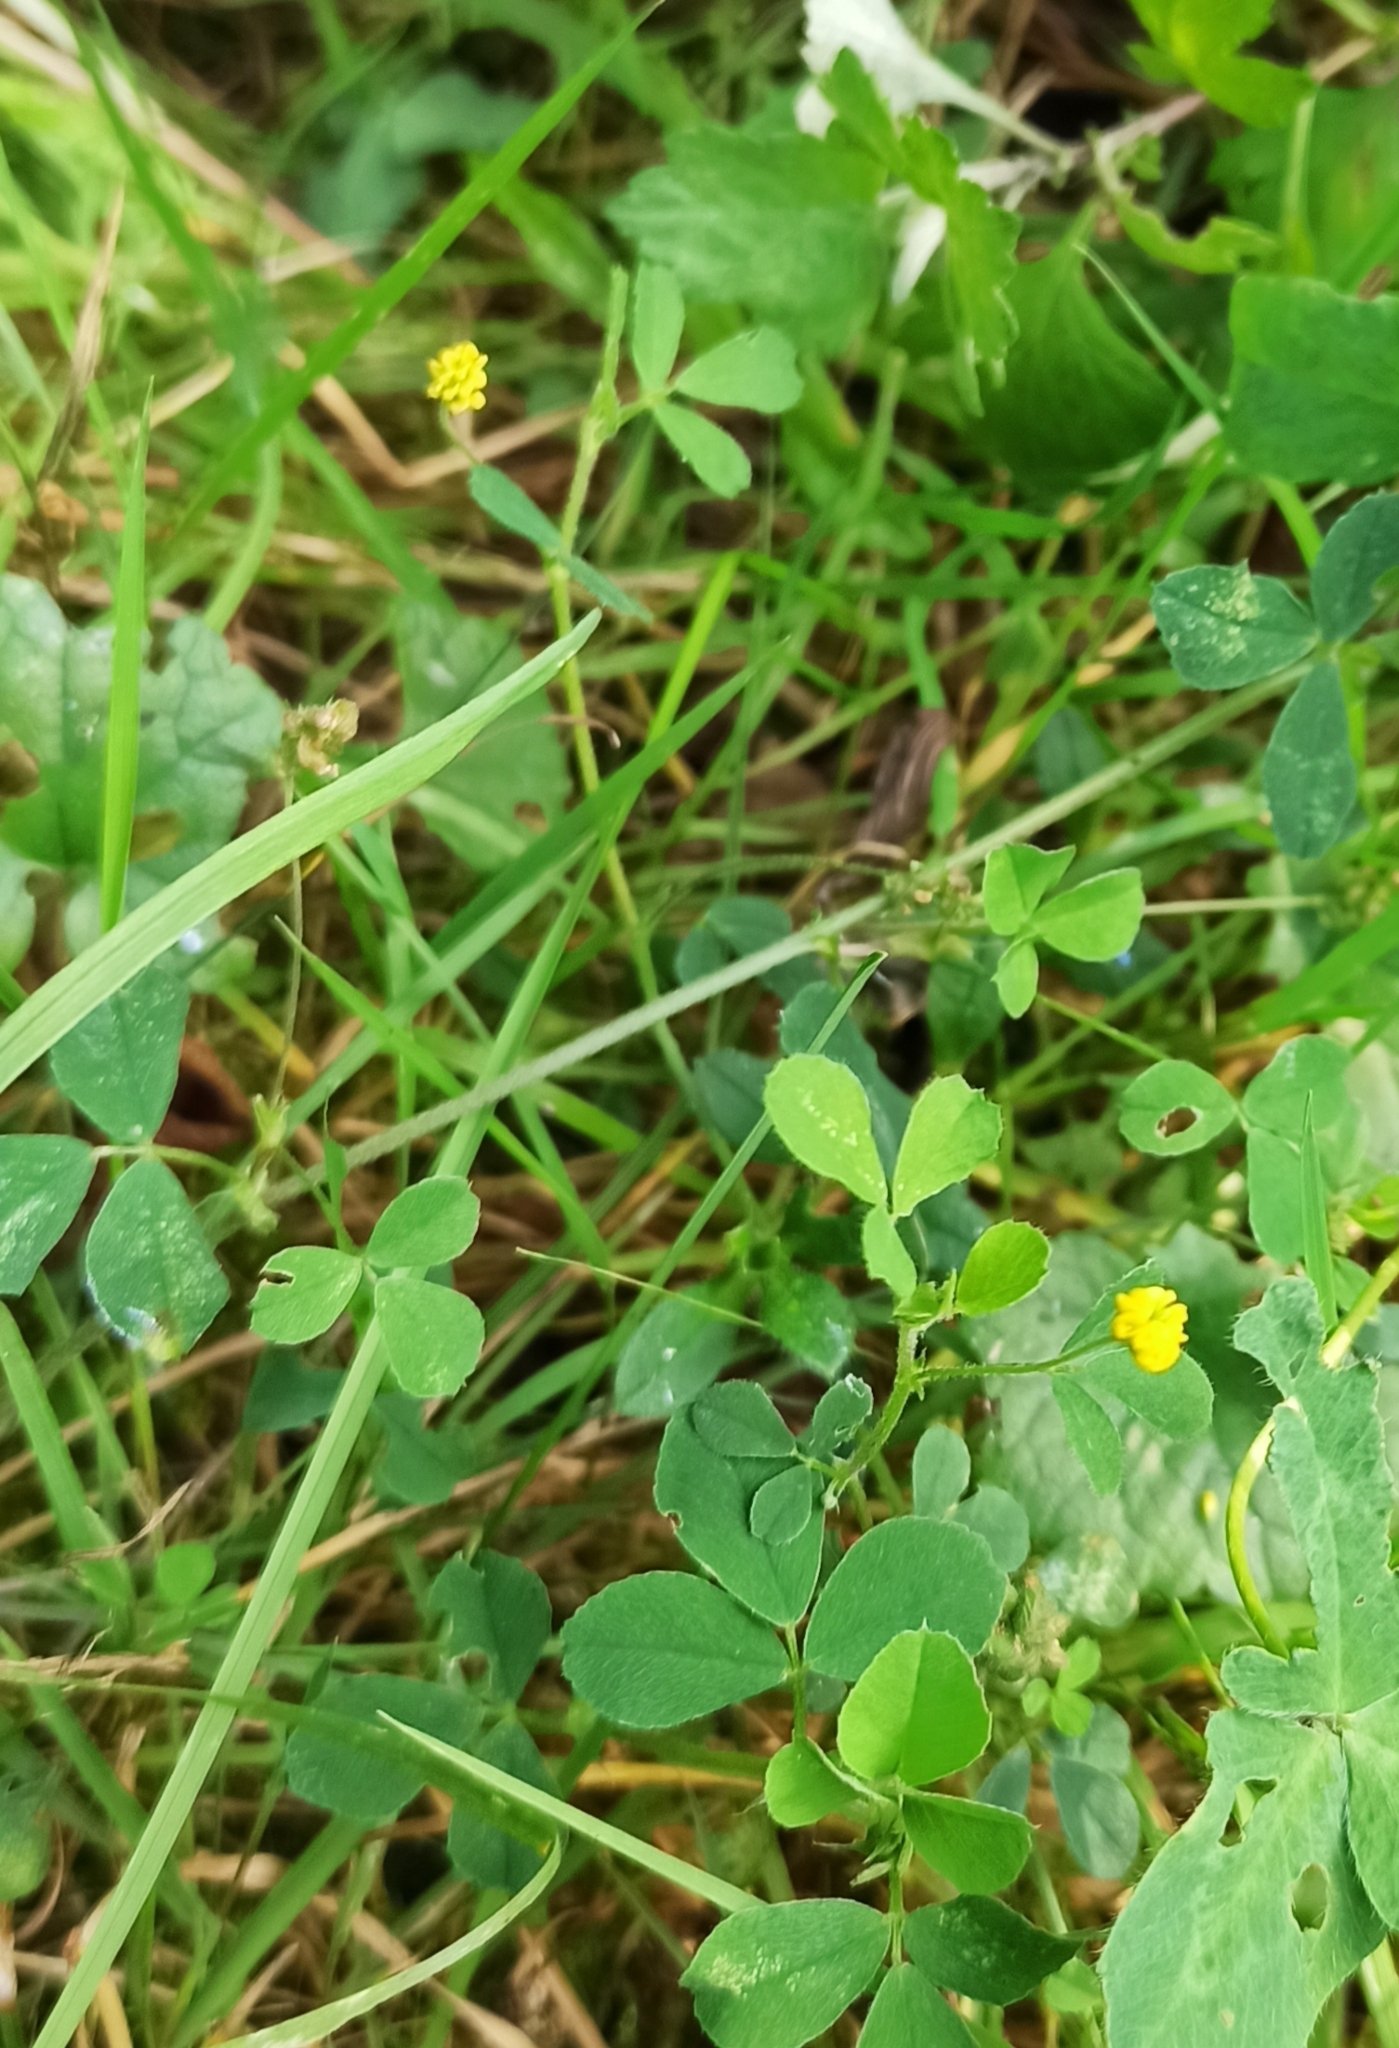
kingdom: Plantae
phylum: Tracheophyta
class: Magnoliopsida
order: Fabales
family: Fabaceae
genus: Medicago
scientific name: Medicago lupulina
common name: Black medick
